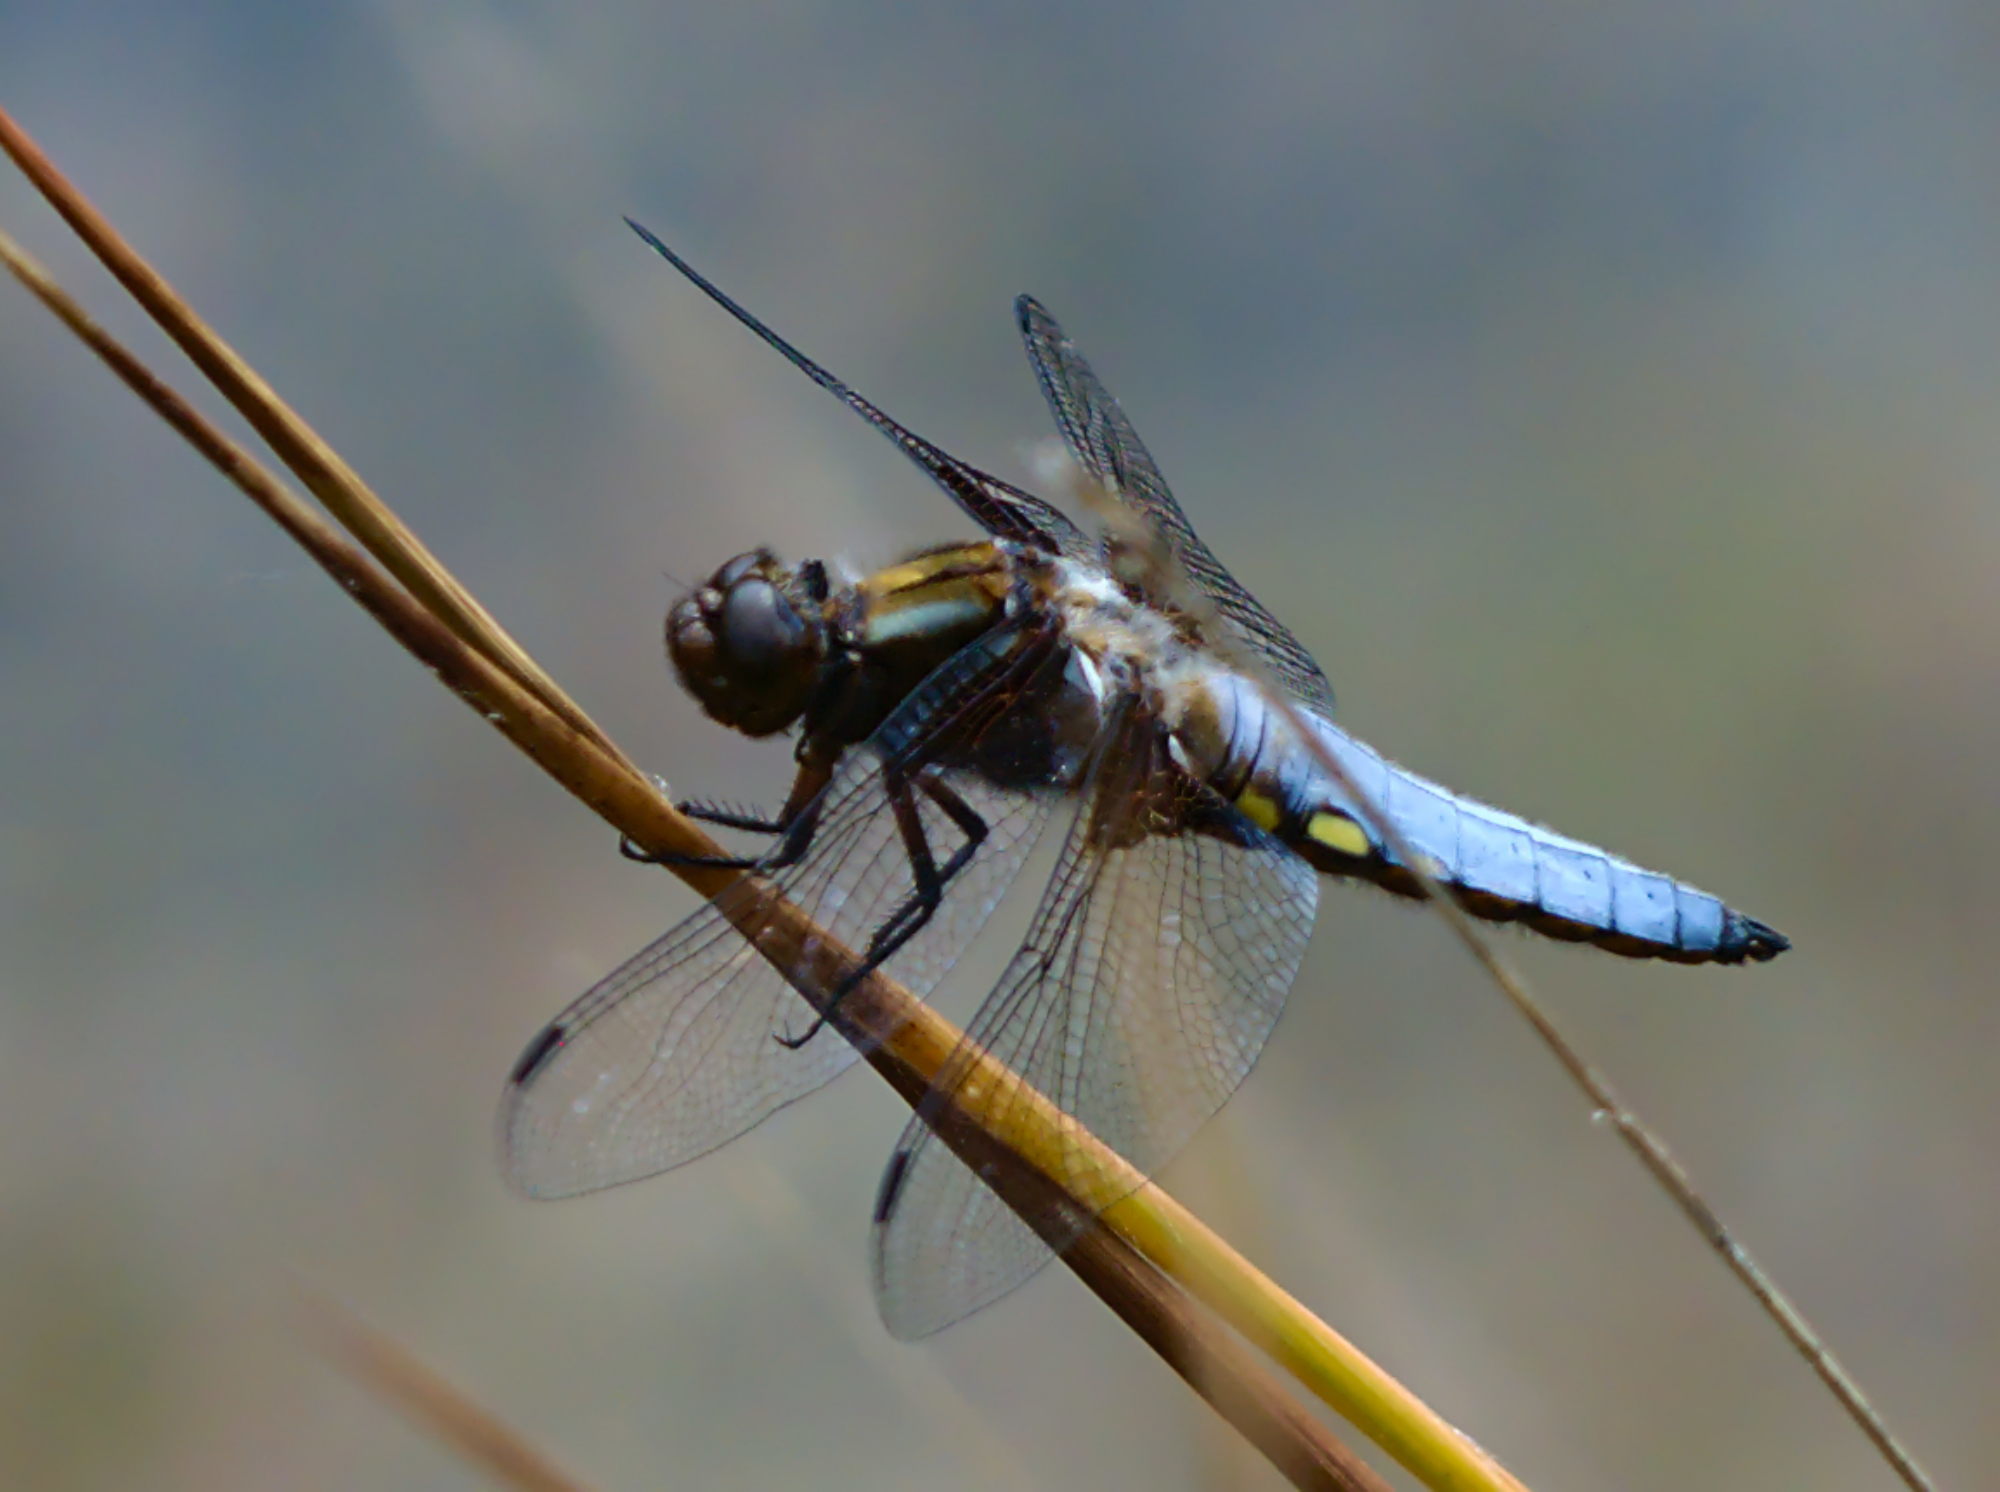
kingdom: Animalia
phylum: Arthropoda
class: Insecta
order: Odonata
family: Libellulidae
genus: Libellula
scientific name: Libellula depressa
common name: Broad-bodied chaser
